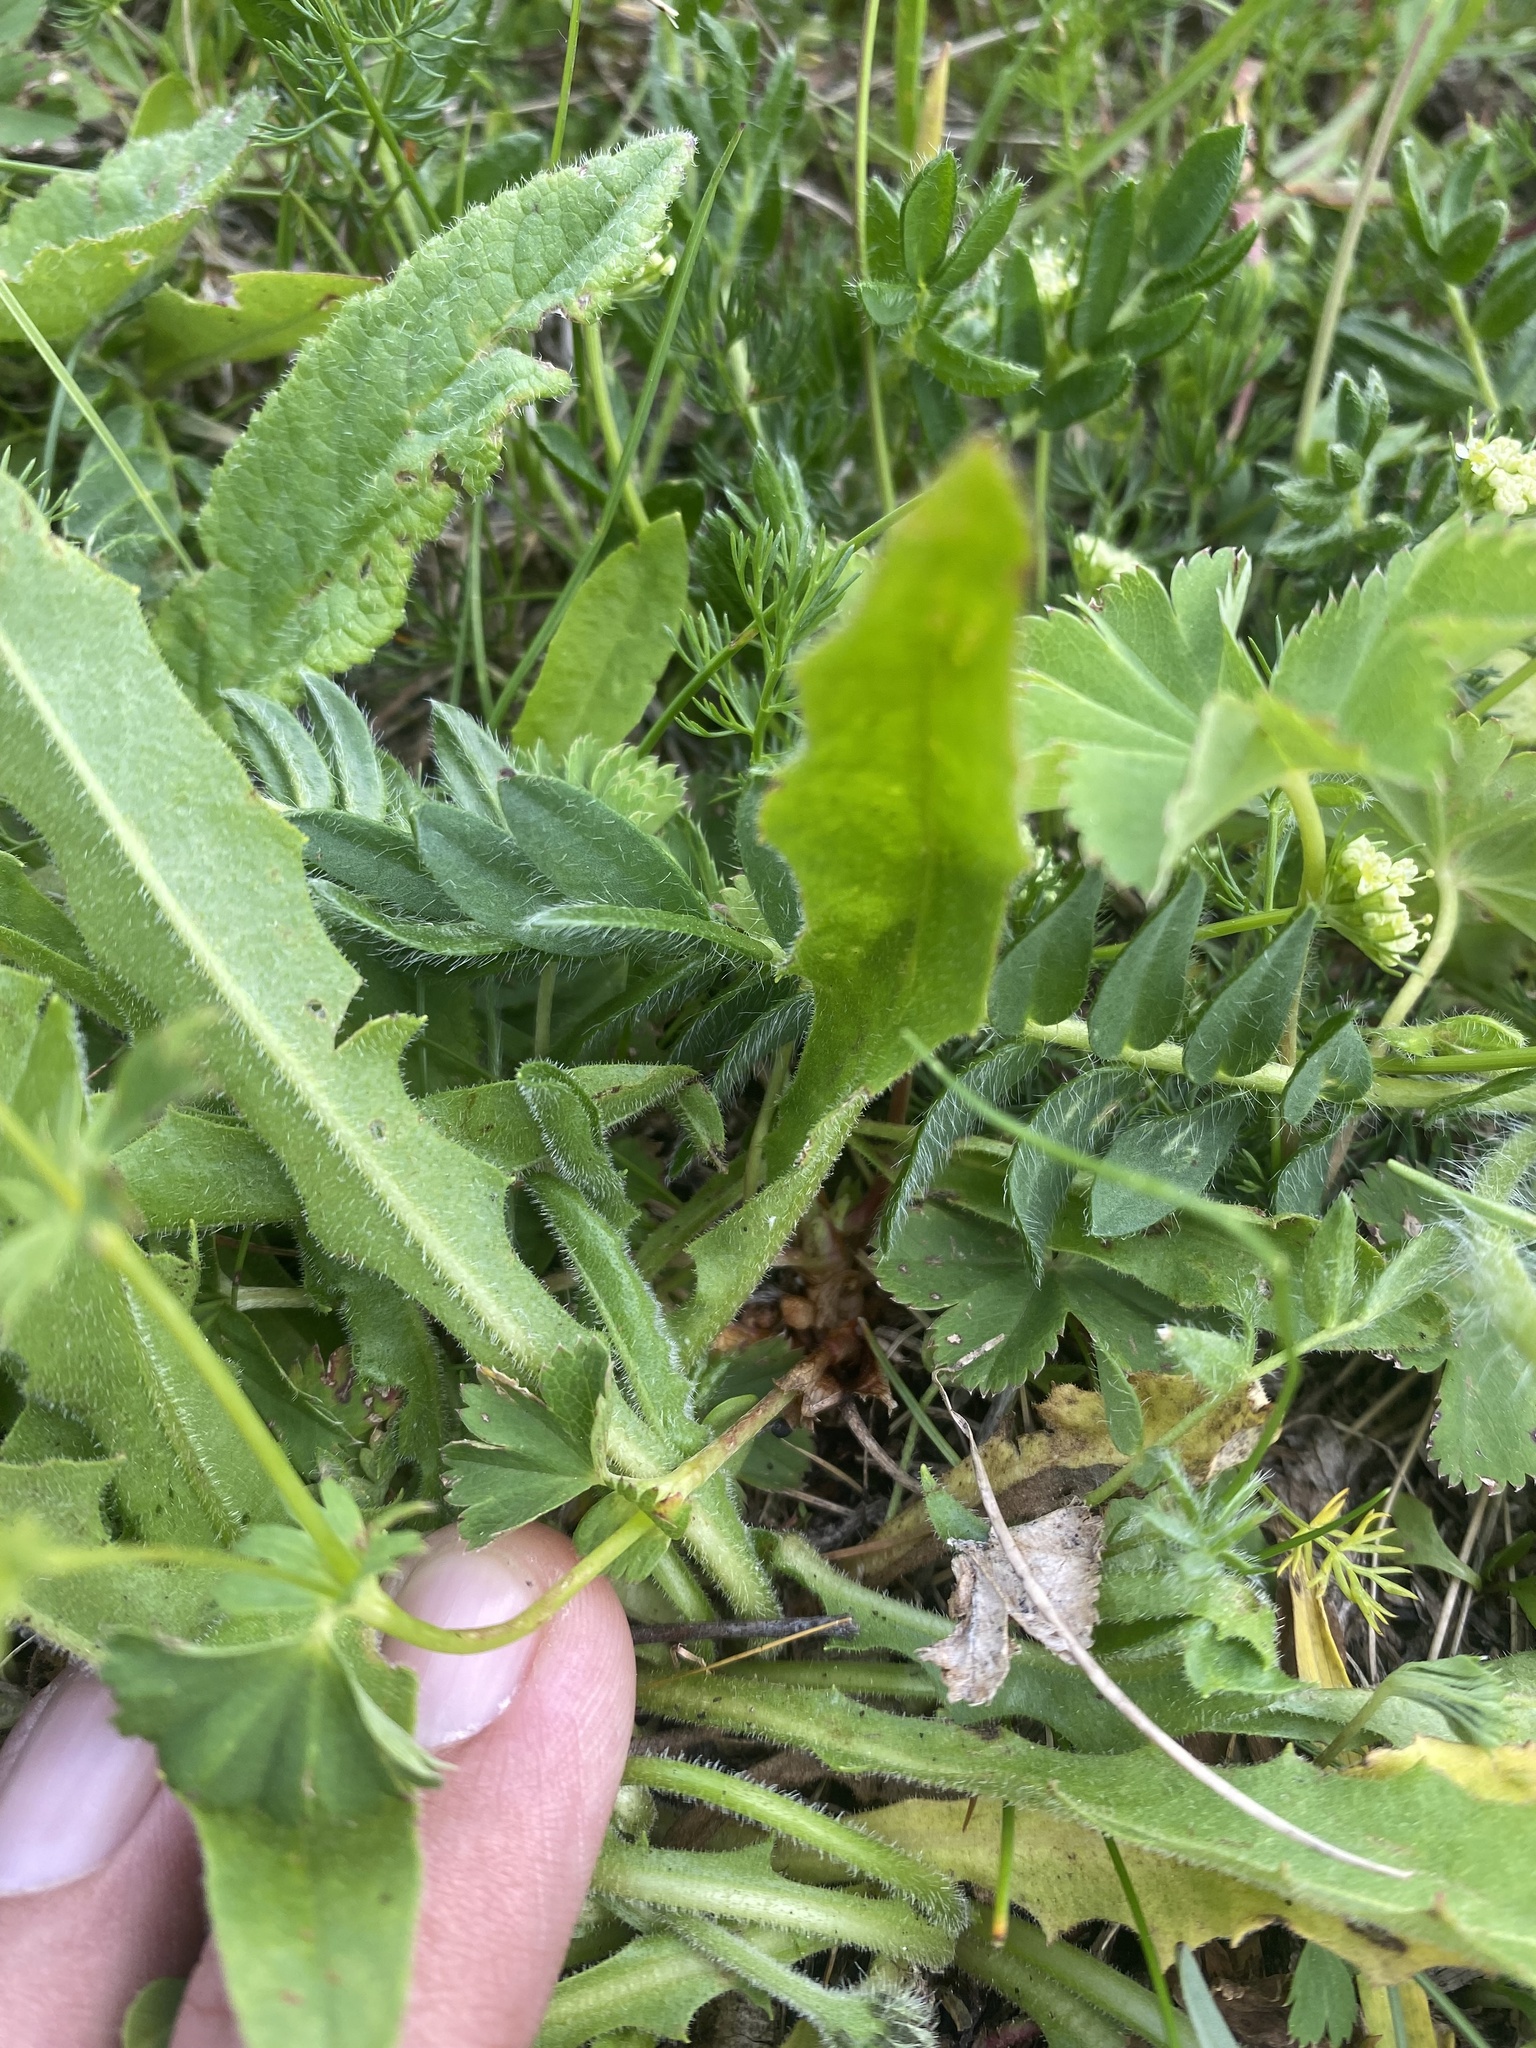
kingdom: Plantae
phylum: Tracheophyta
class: Magnoliopsida
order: Fabales
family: Fabaceae
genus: Oxytropis
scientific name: Oxytropis lazica
